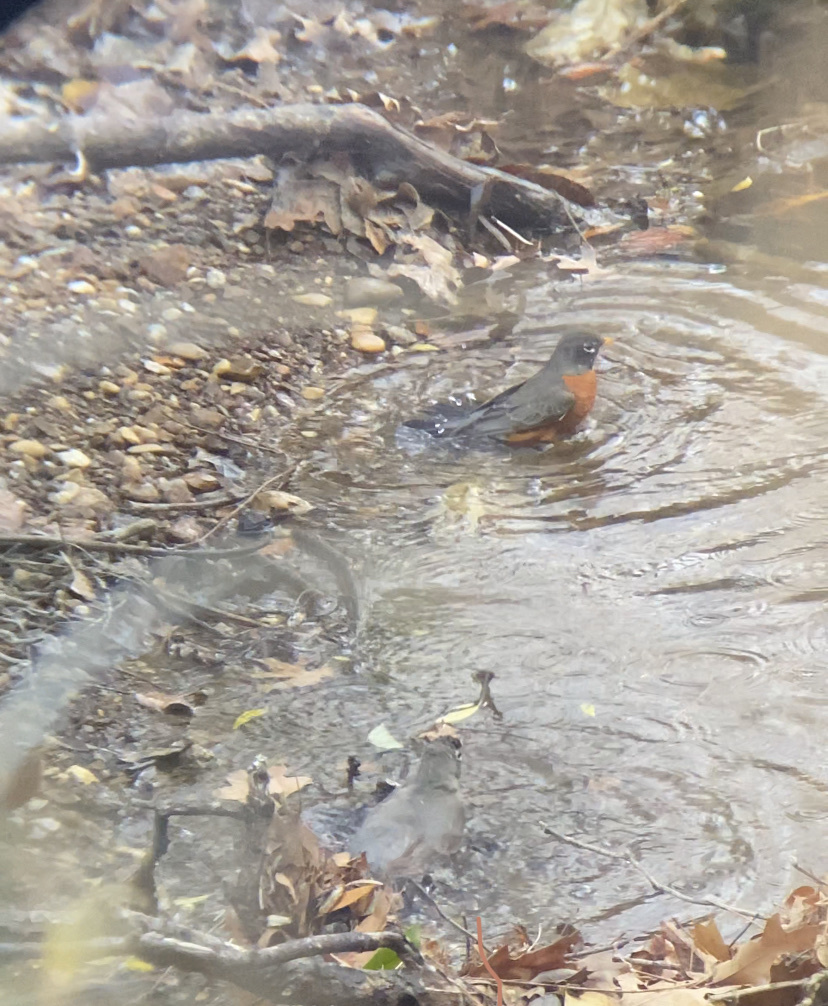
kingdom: Animalia
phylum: Chordata
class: Aves
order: Passeriformes
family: Turdidae
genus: Turdus
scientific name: Turdus migratorius
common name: American robin
